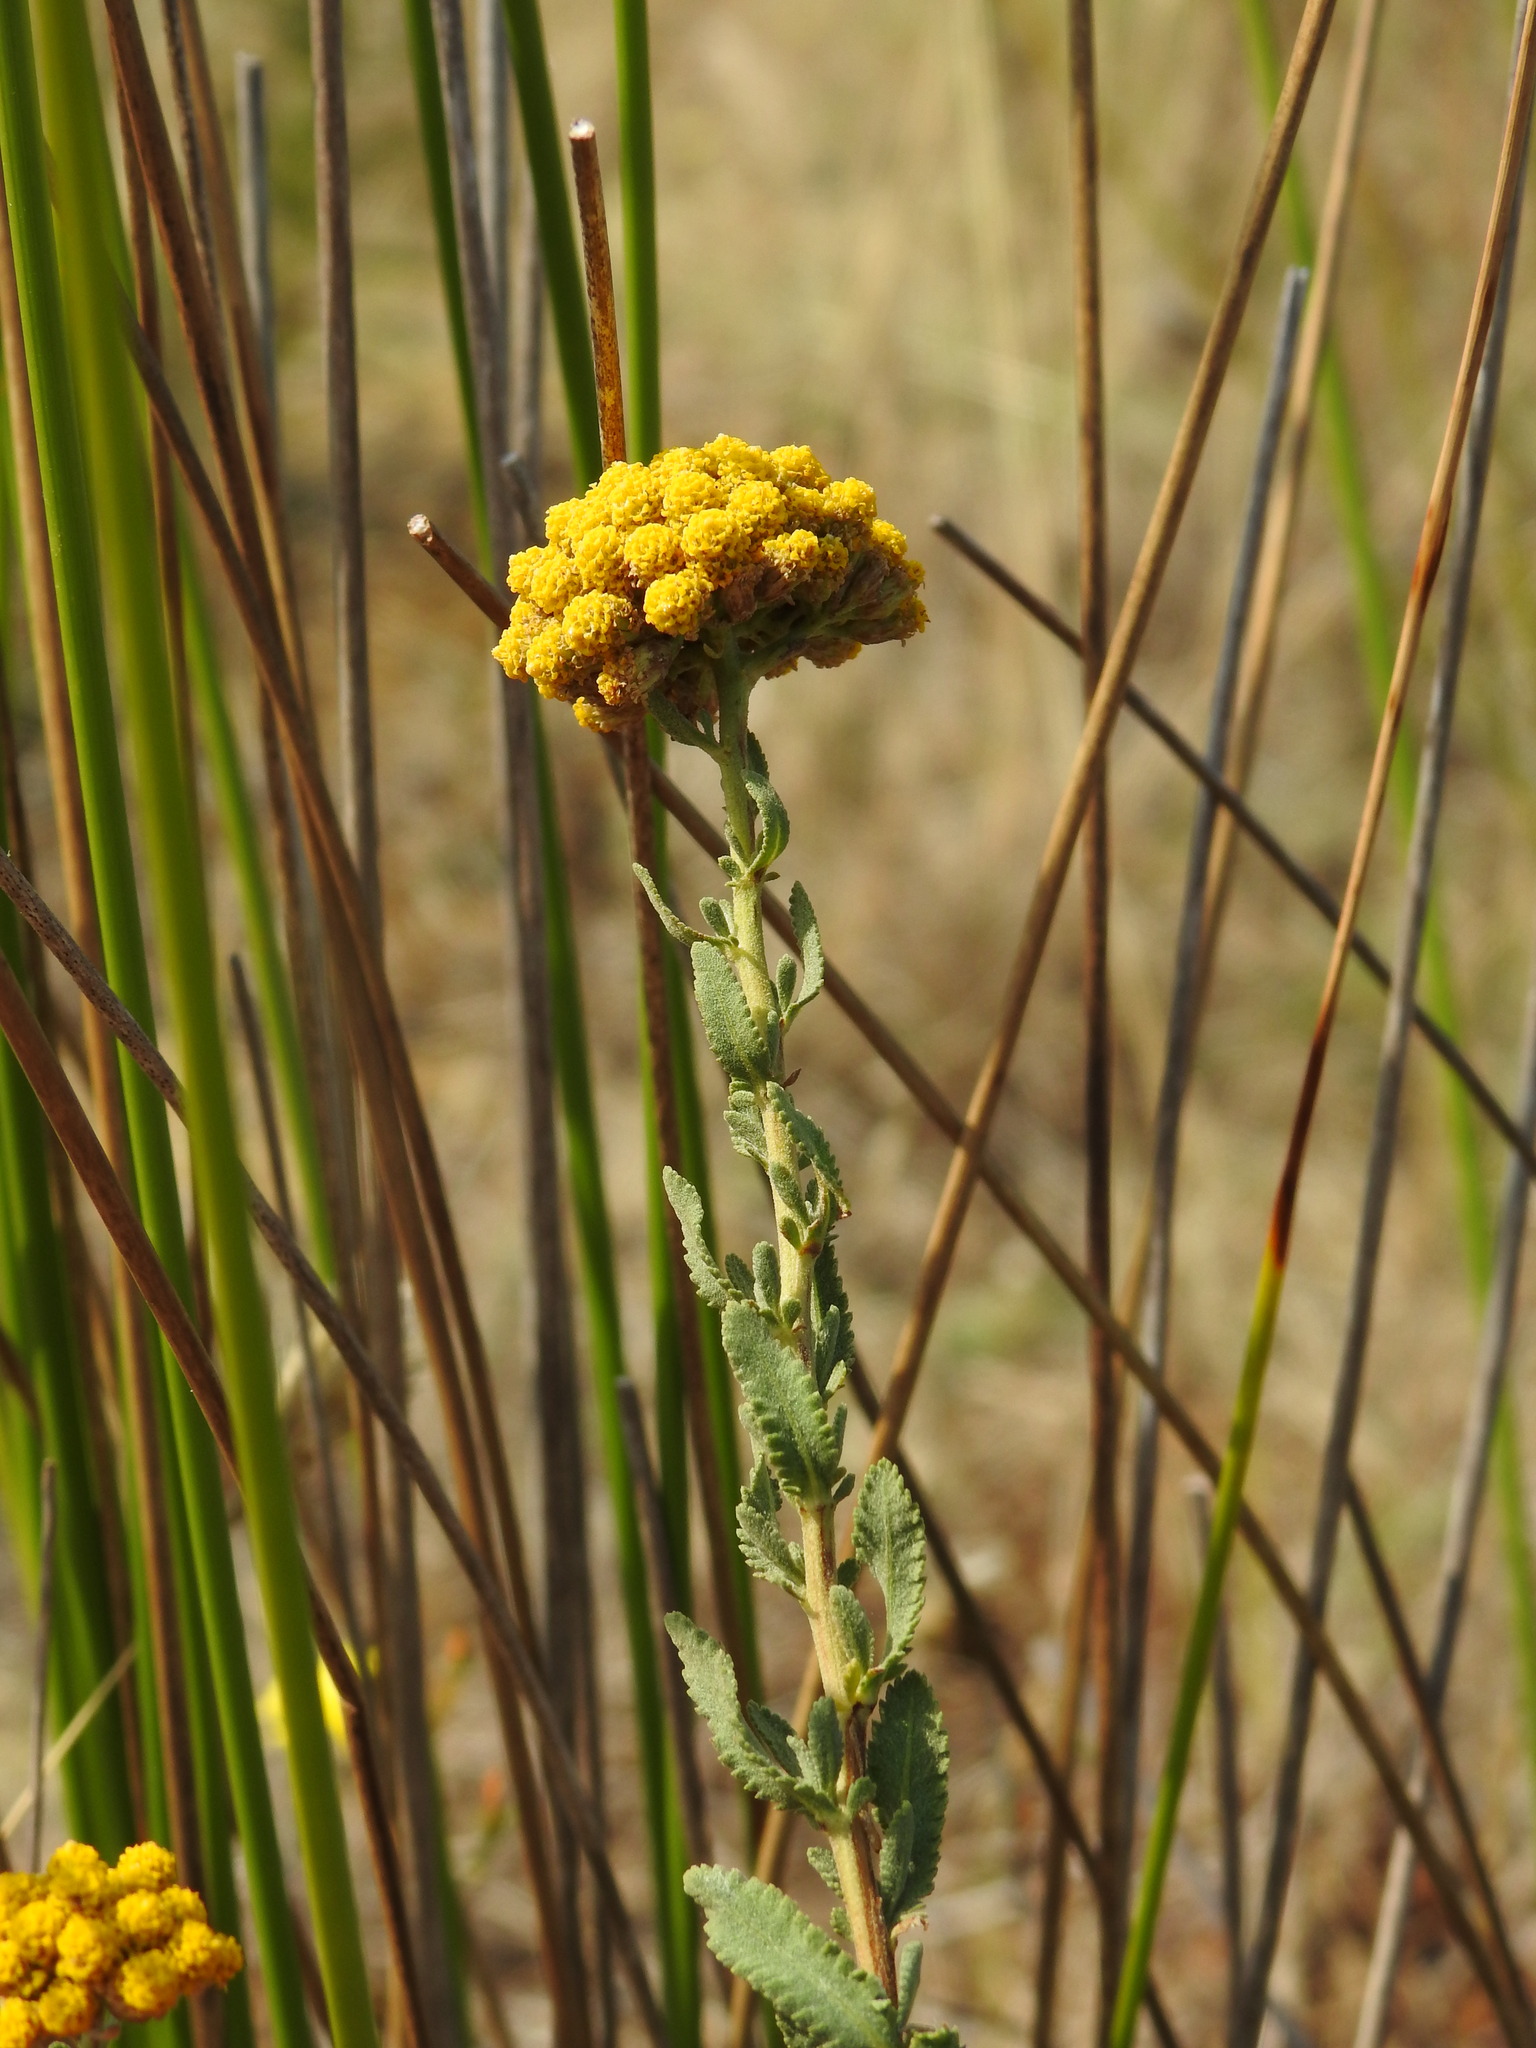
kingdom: Plantae
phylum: Tracheophyta
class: Magnoliopsida
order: Asterales
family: Asteraceae
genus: Achillea
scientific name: Achillea ageratum
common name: Sweet-nancy
